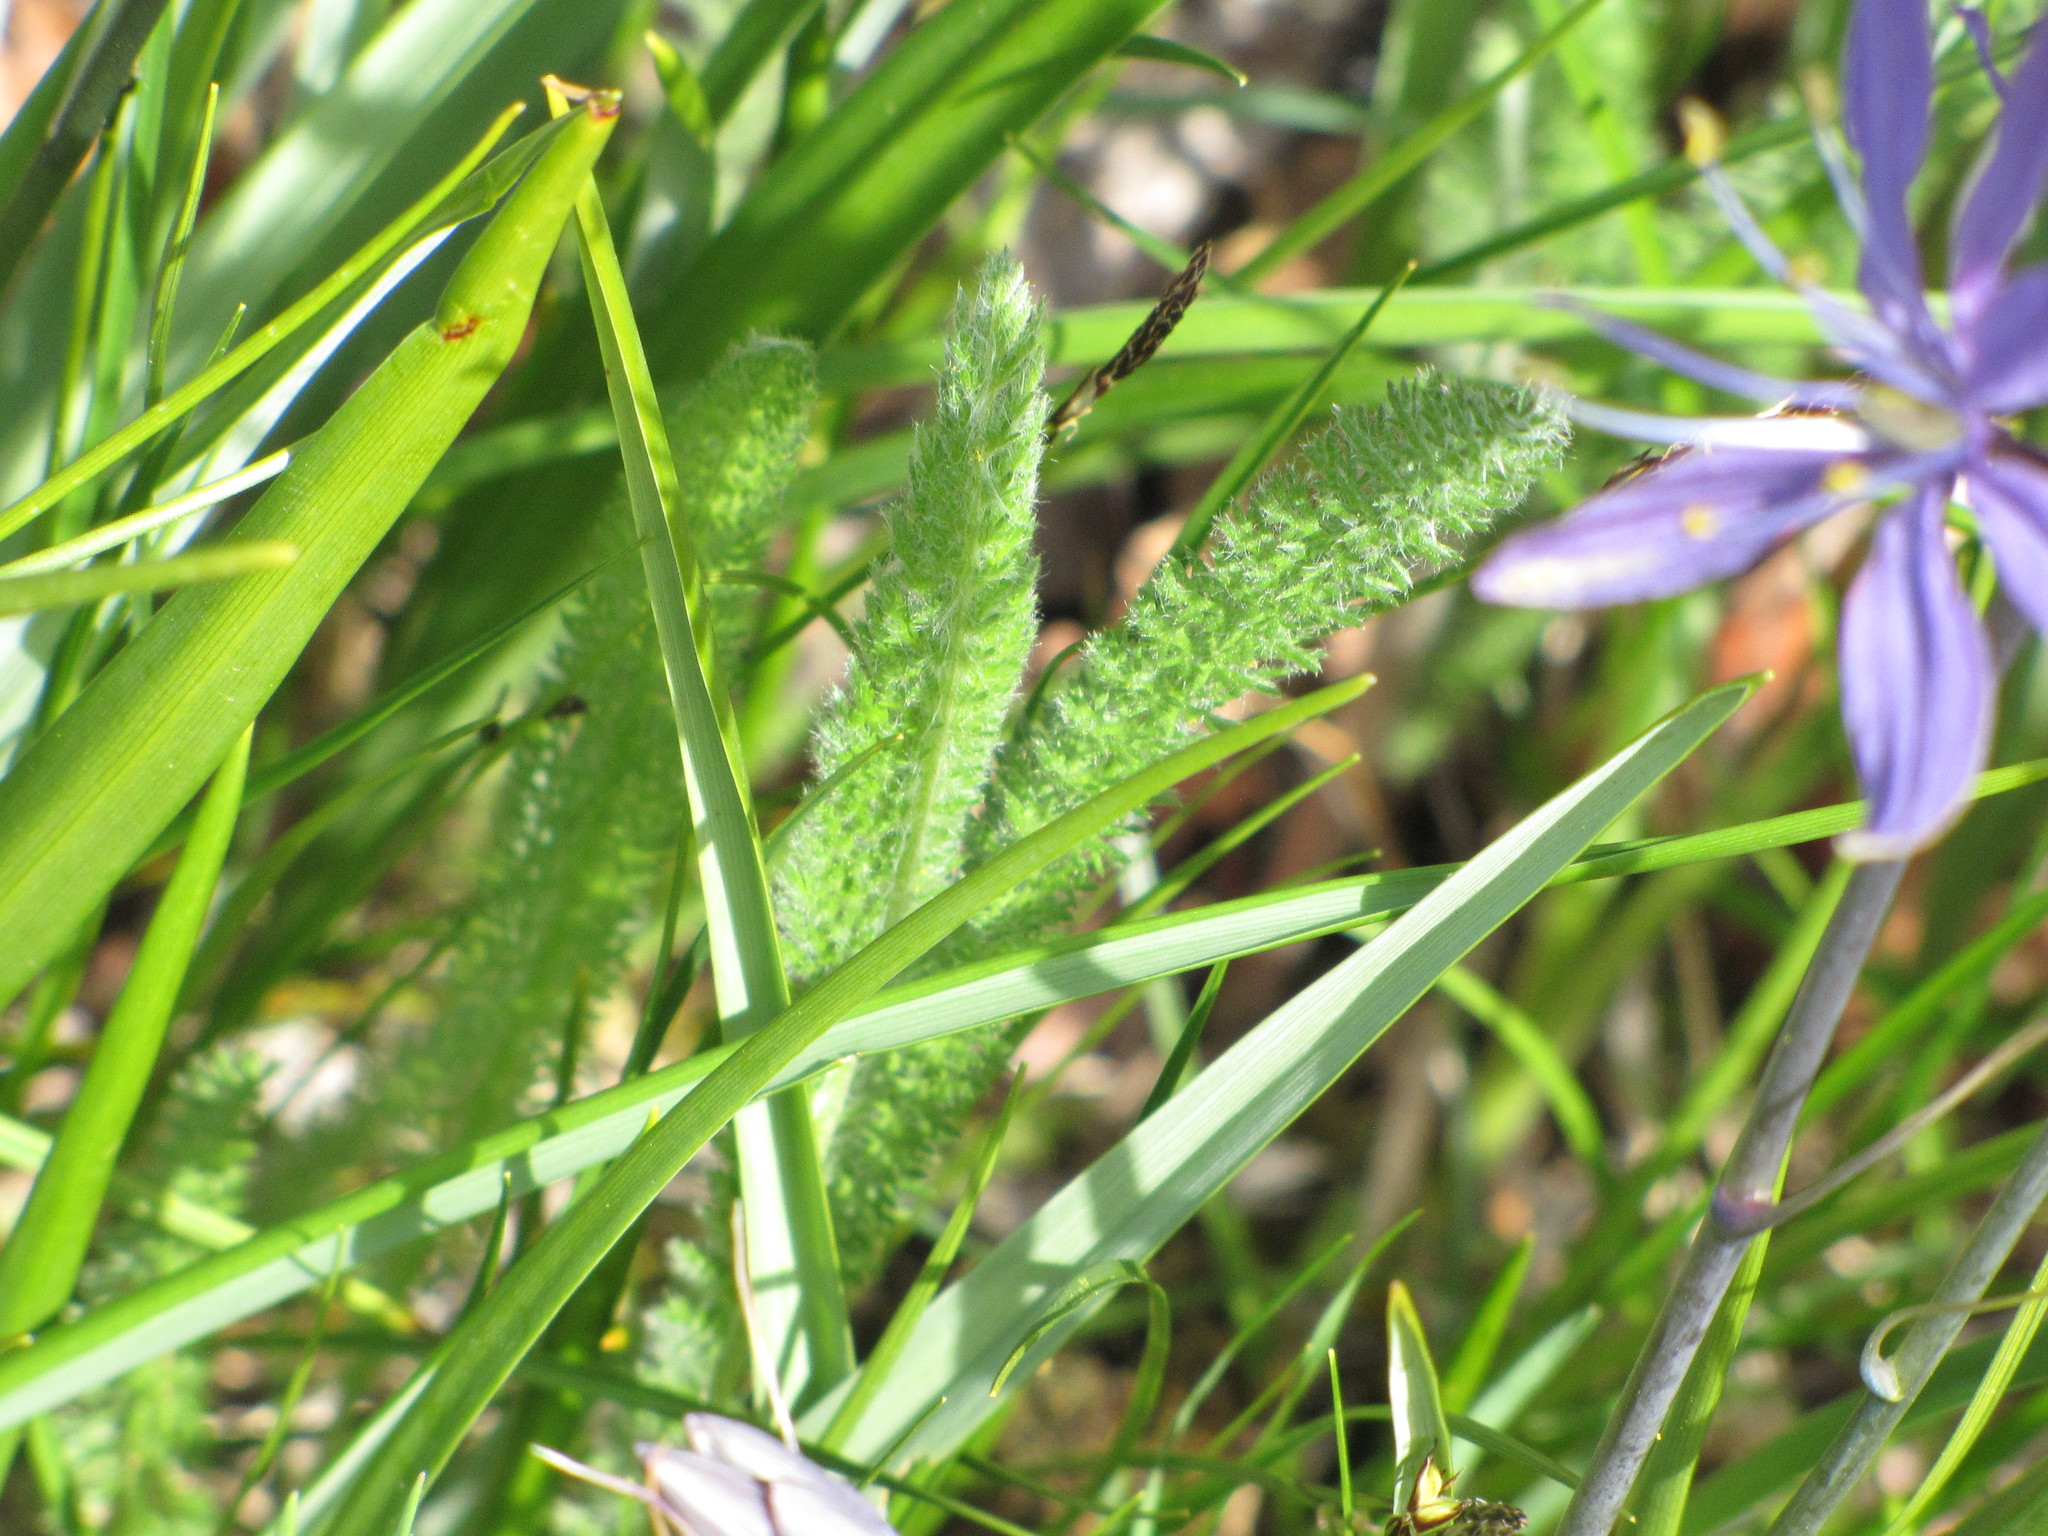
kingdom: Plantae
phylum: Tracheophyta
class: Magnoliopsida
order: Asterales
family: Asteraceae
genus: Achillea
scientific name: Achillea millefolium
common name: Yarrow
